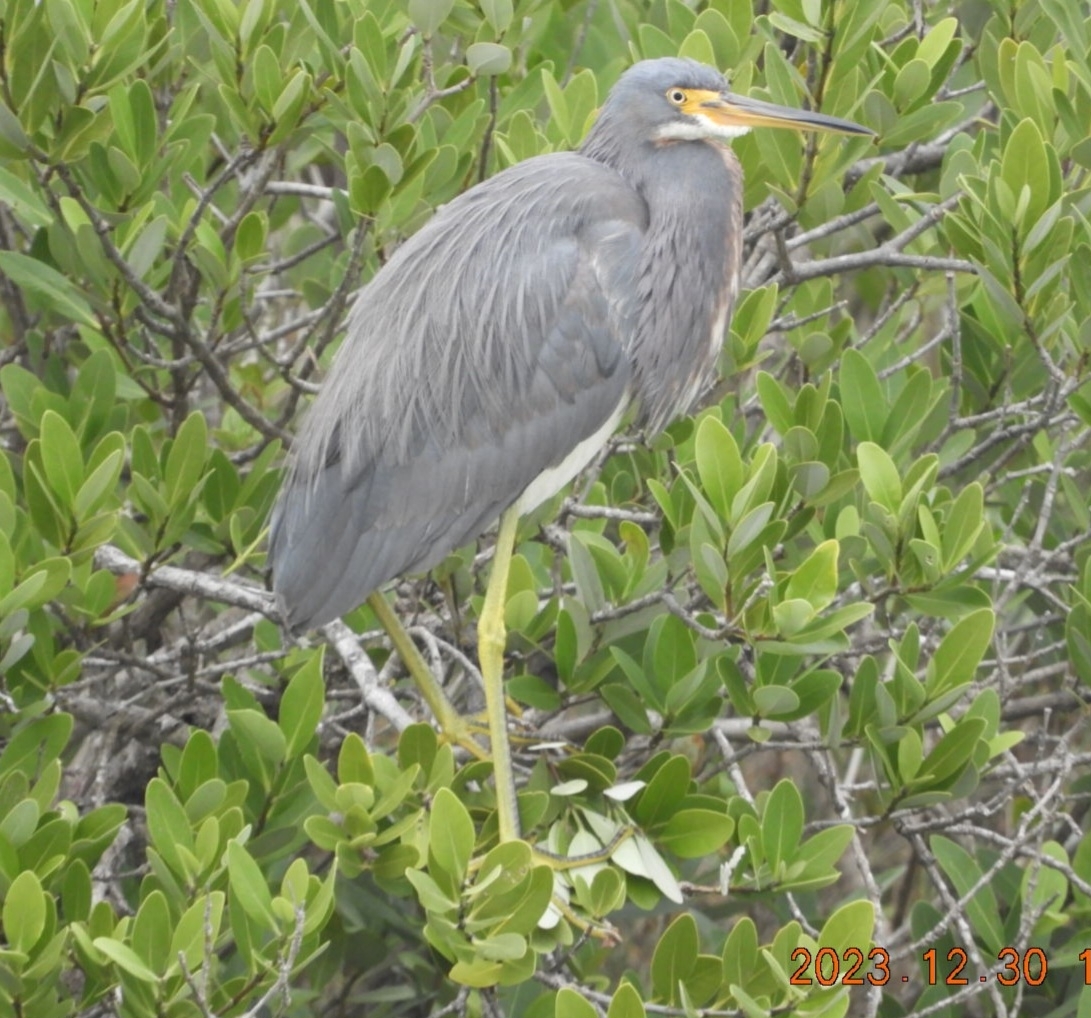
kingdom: Animalia
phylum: Chordata
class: Aves
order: Pelecaniformes
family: Ardeidae
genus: Egretta
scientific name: Egretta tricolor
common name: Tricolored heron
